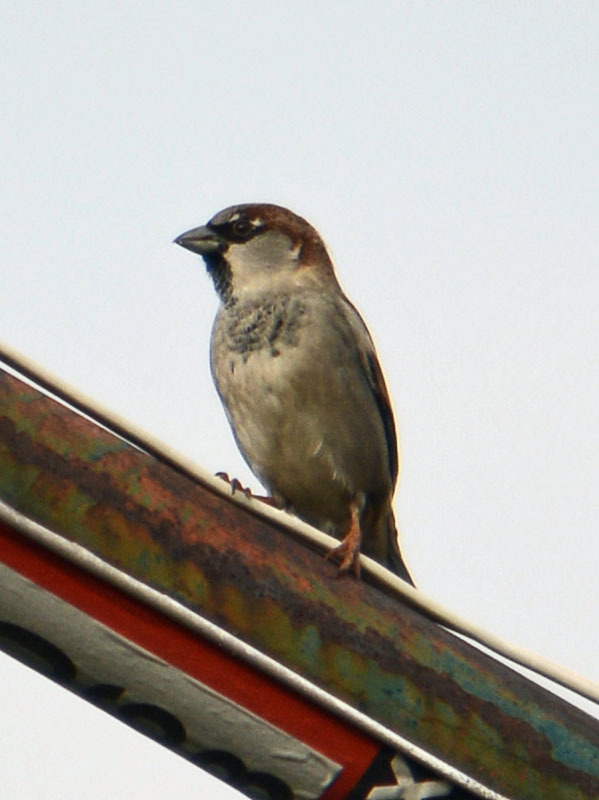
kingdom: Animalia
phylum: Chordata
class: Aves
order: Passeriformes
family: Passeridae
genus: Passer
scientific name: Passer domesticus
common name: House sparrow
